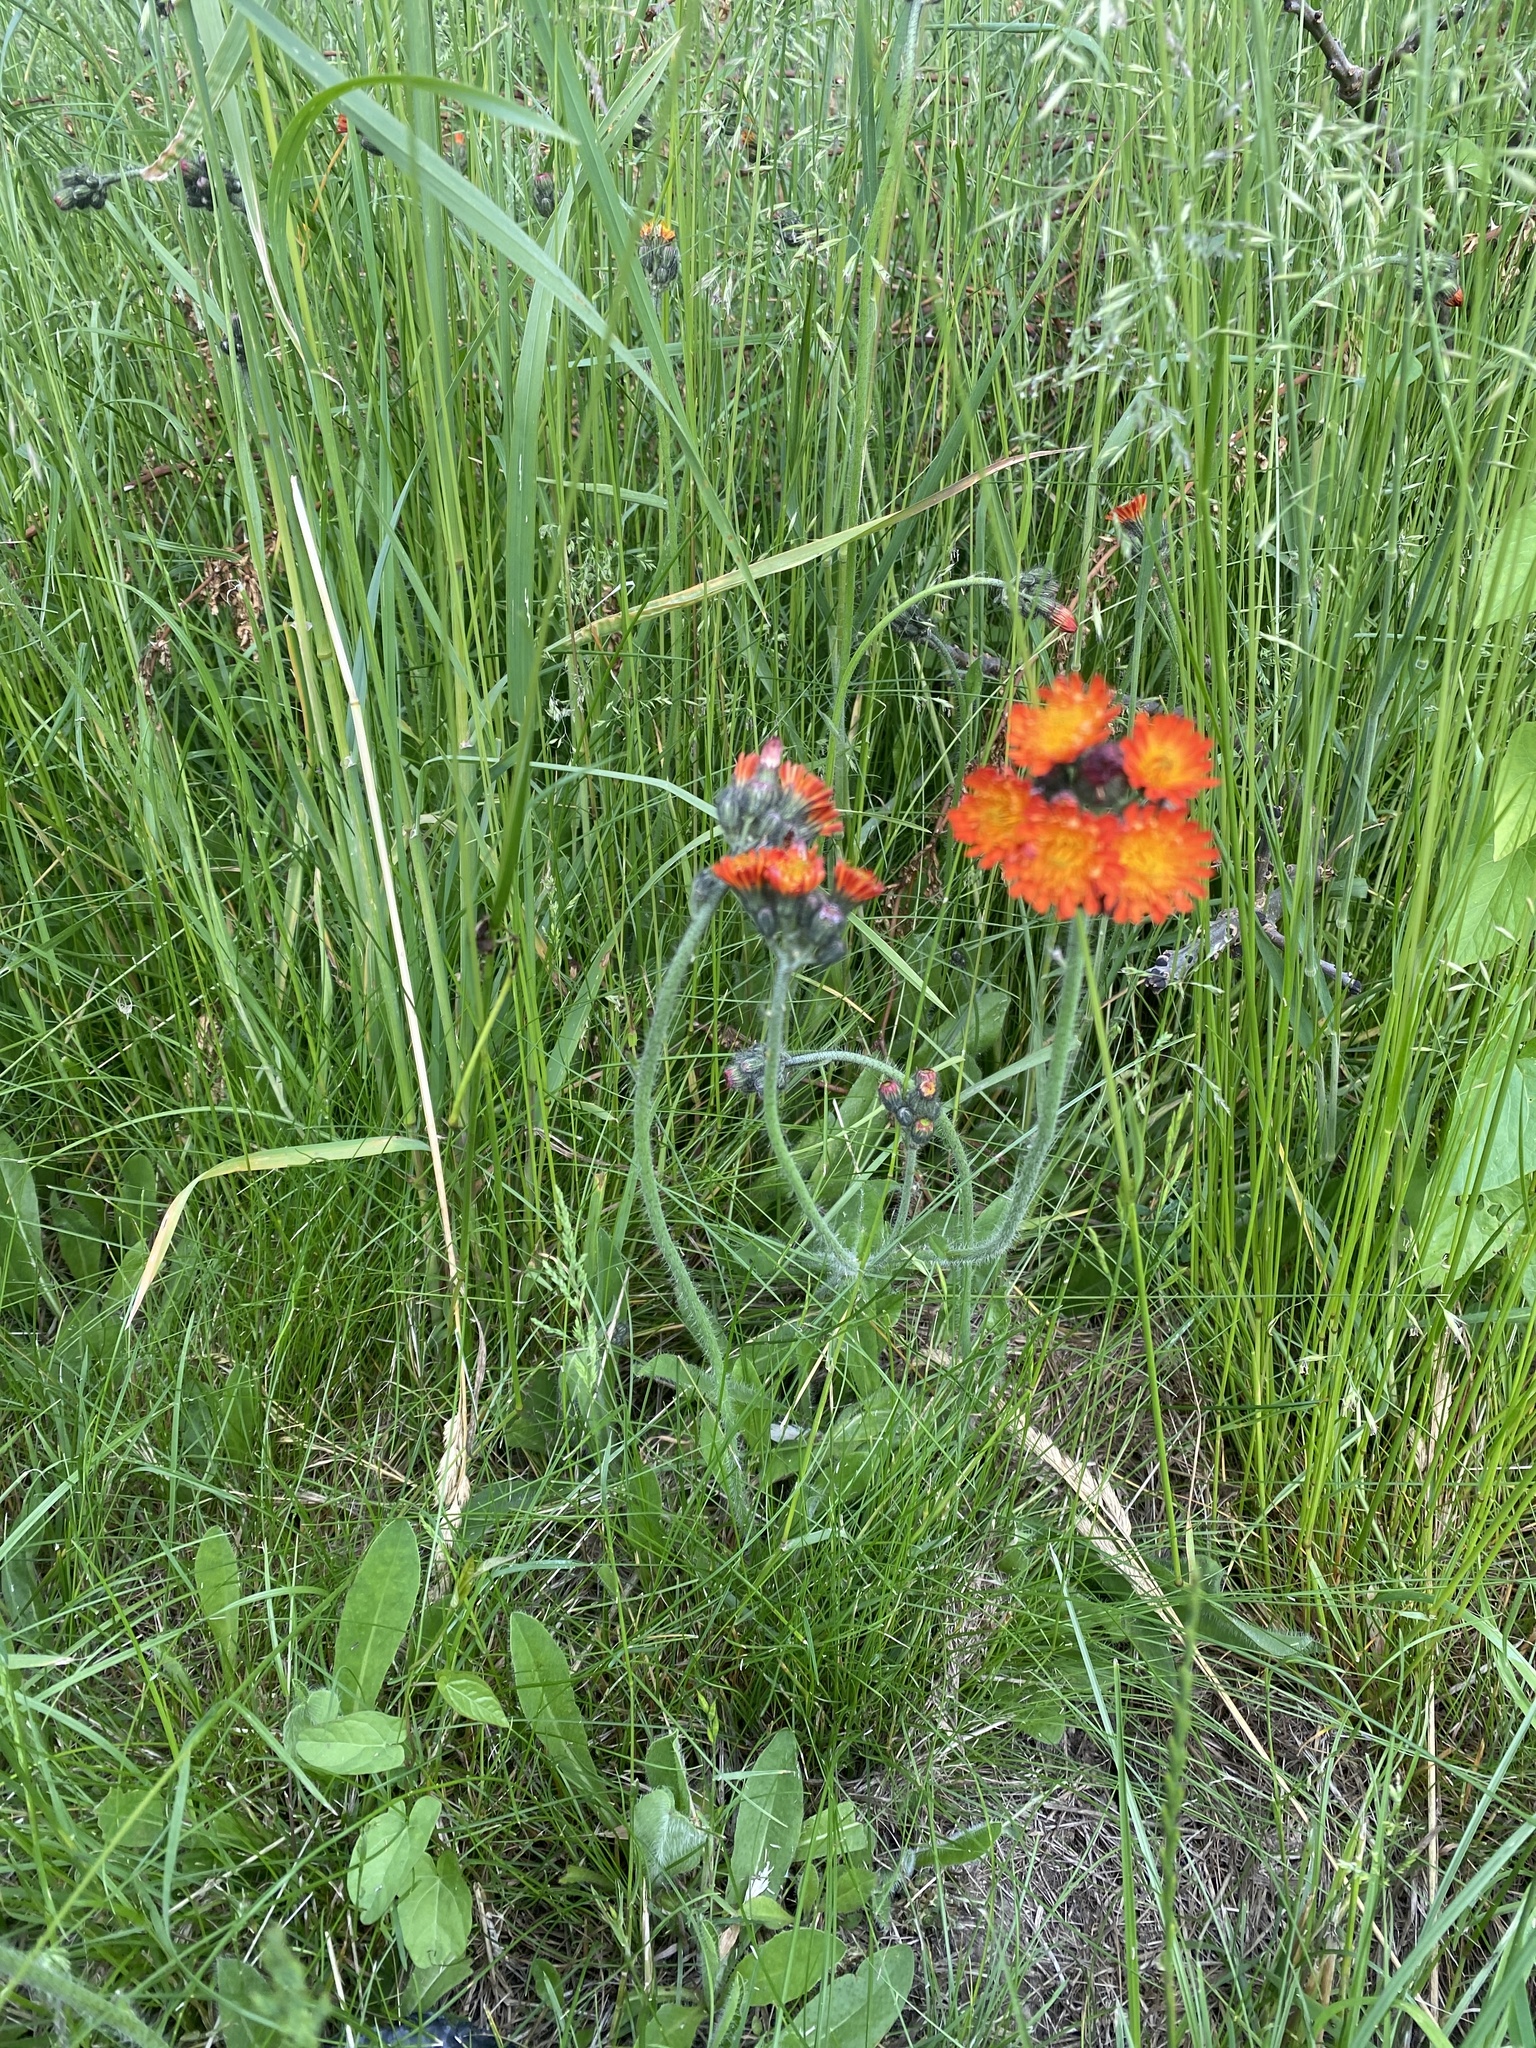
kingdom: Plantae
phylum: Tracheophyta
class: Magnoliopsida
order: Asterales
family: Asteraceae
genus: Pilosella
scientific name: Pilosella aurantiaca
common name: Fox-and-cubs
